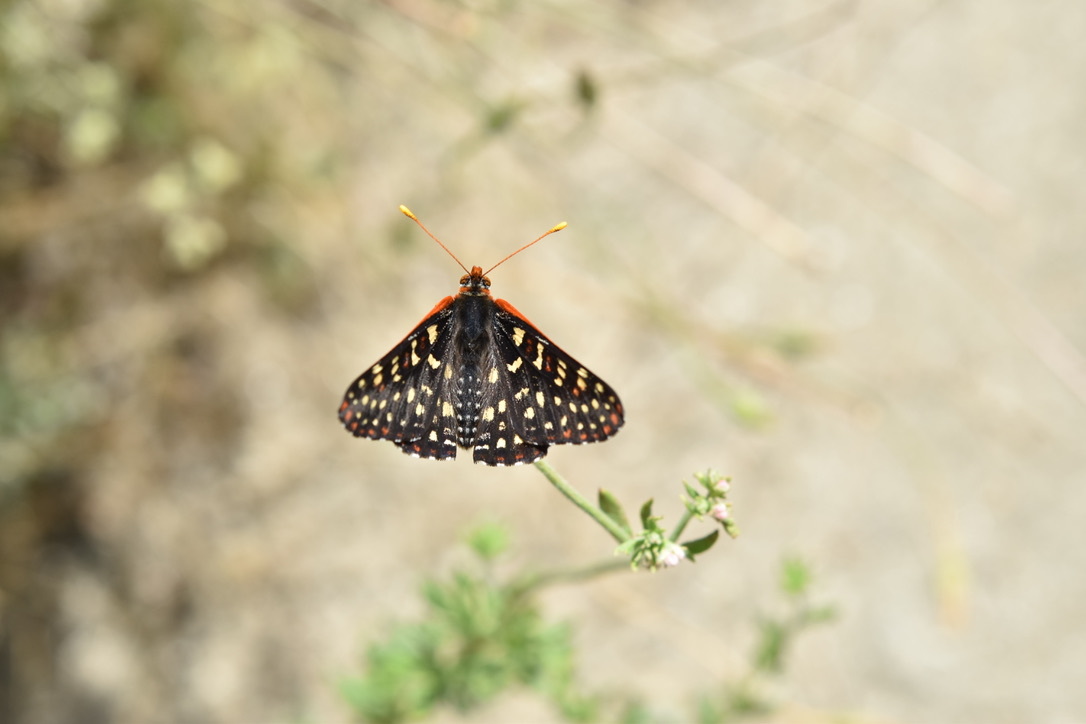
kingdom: Animalia
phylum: Arthropoda
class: Insecta
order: Lepidoptera
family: Nymphalidae
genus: Occidryas
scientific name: Occidryas chalcedona
